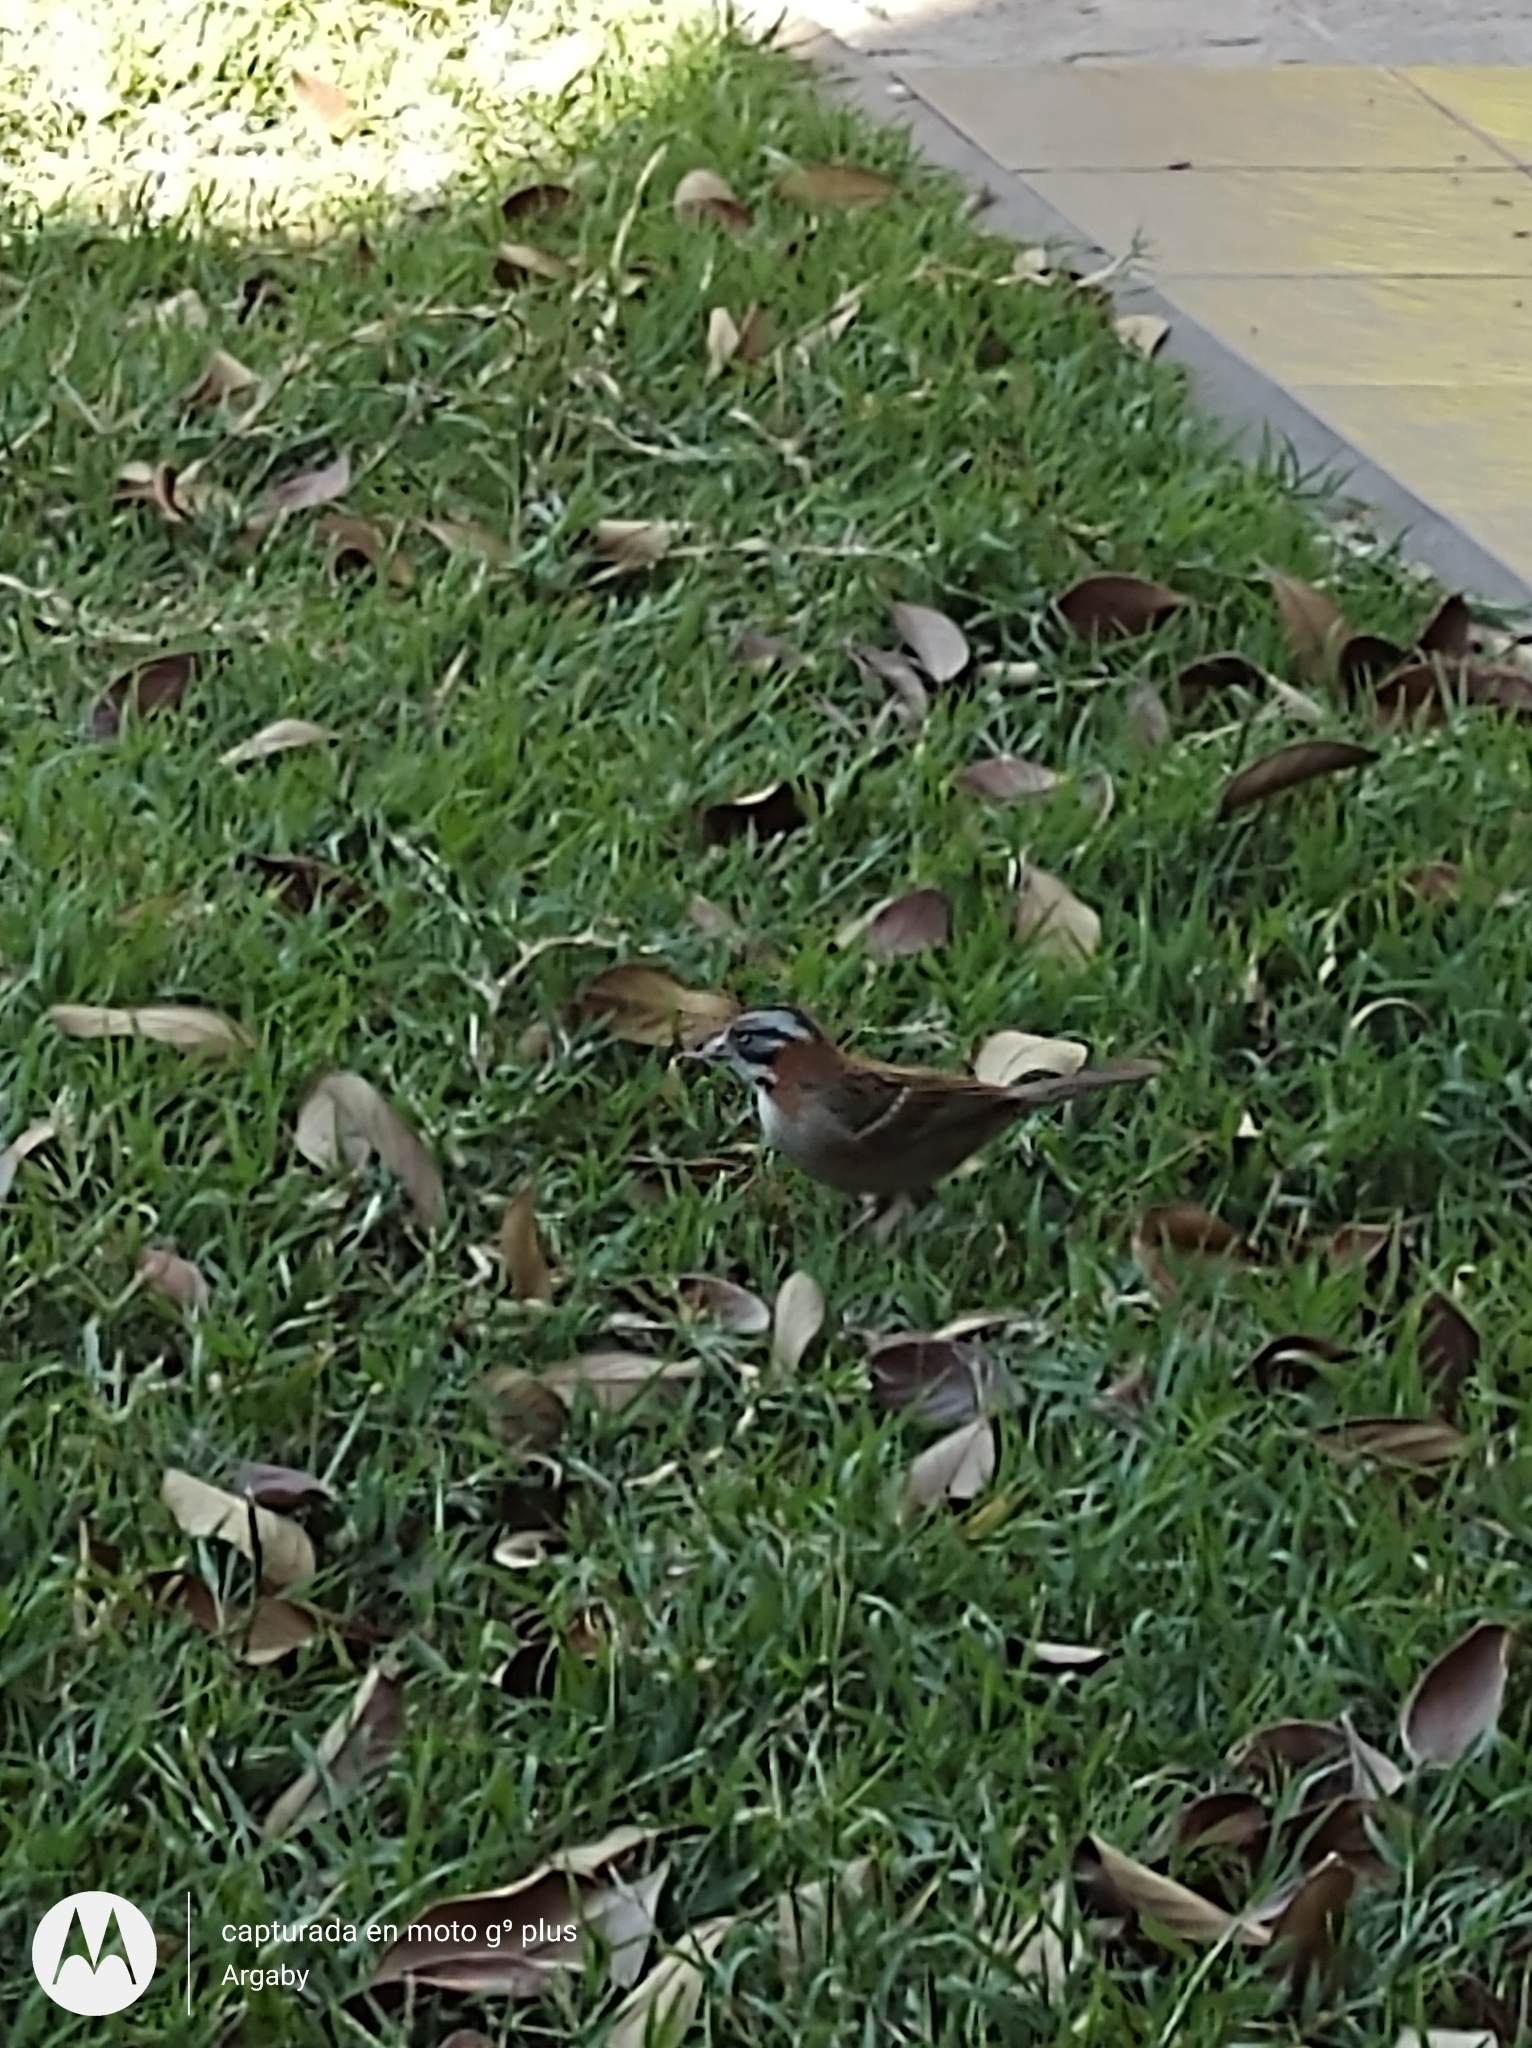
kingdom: Animalia
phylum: Chordata
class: Aves
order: Passeriformes
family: Passerellidae
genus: Zonotrichia
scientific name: Zonotrichia capensis
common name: Rufous-collared sparrow
